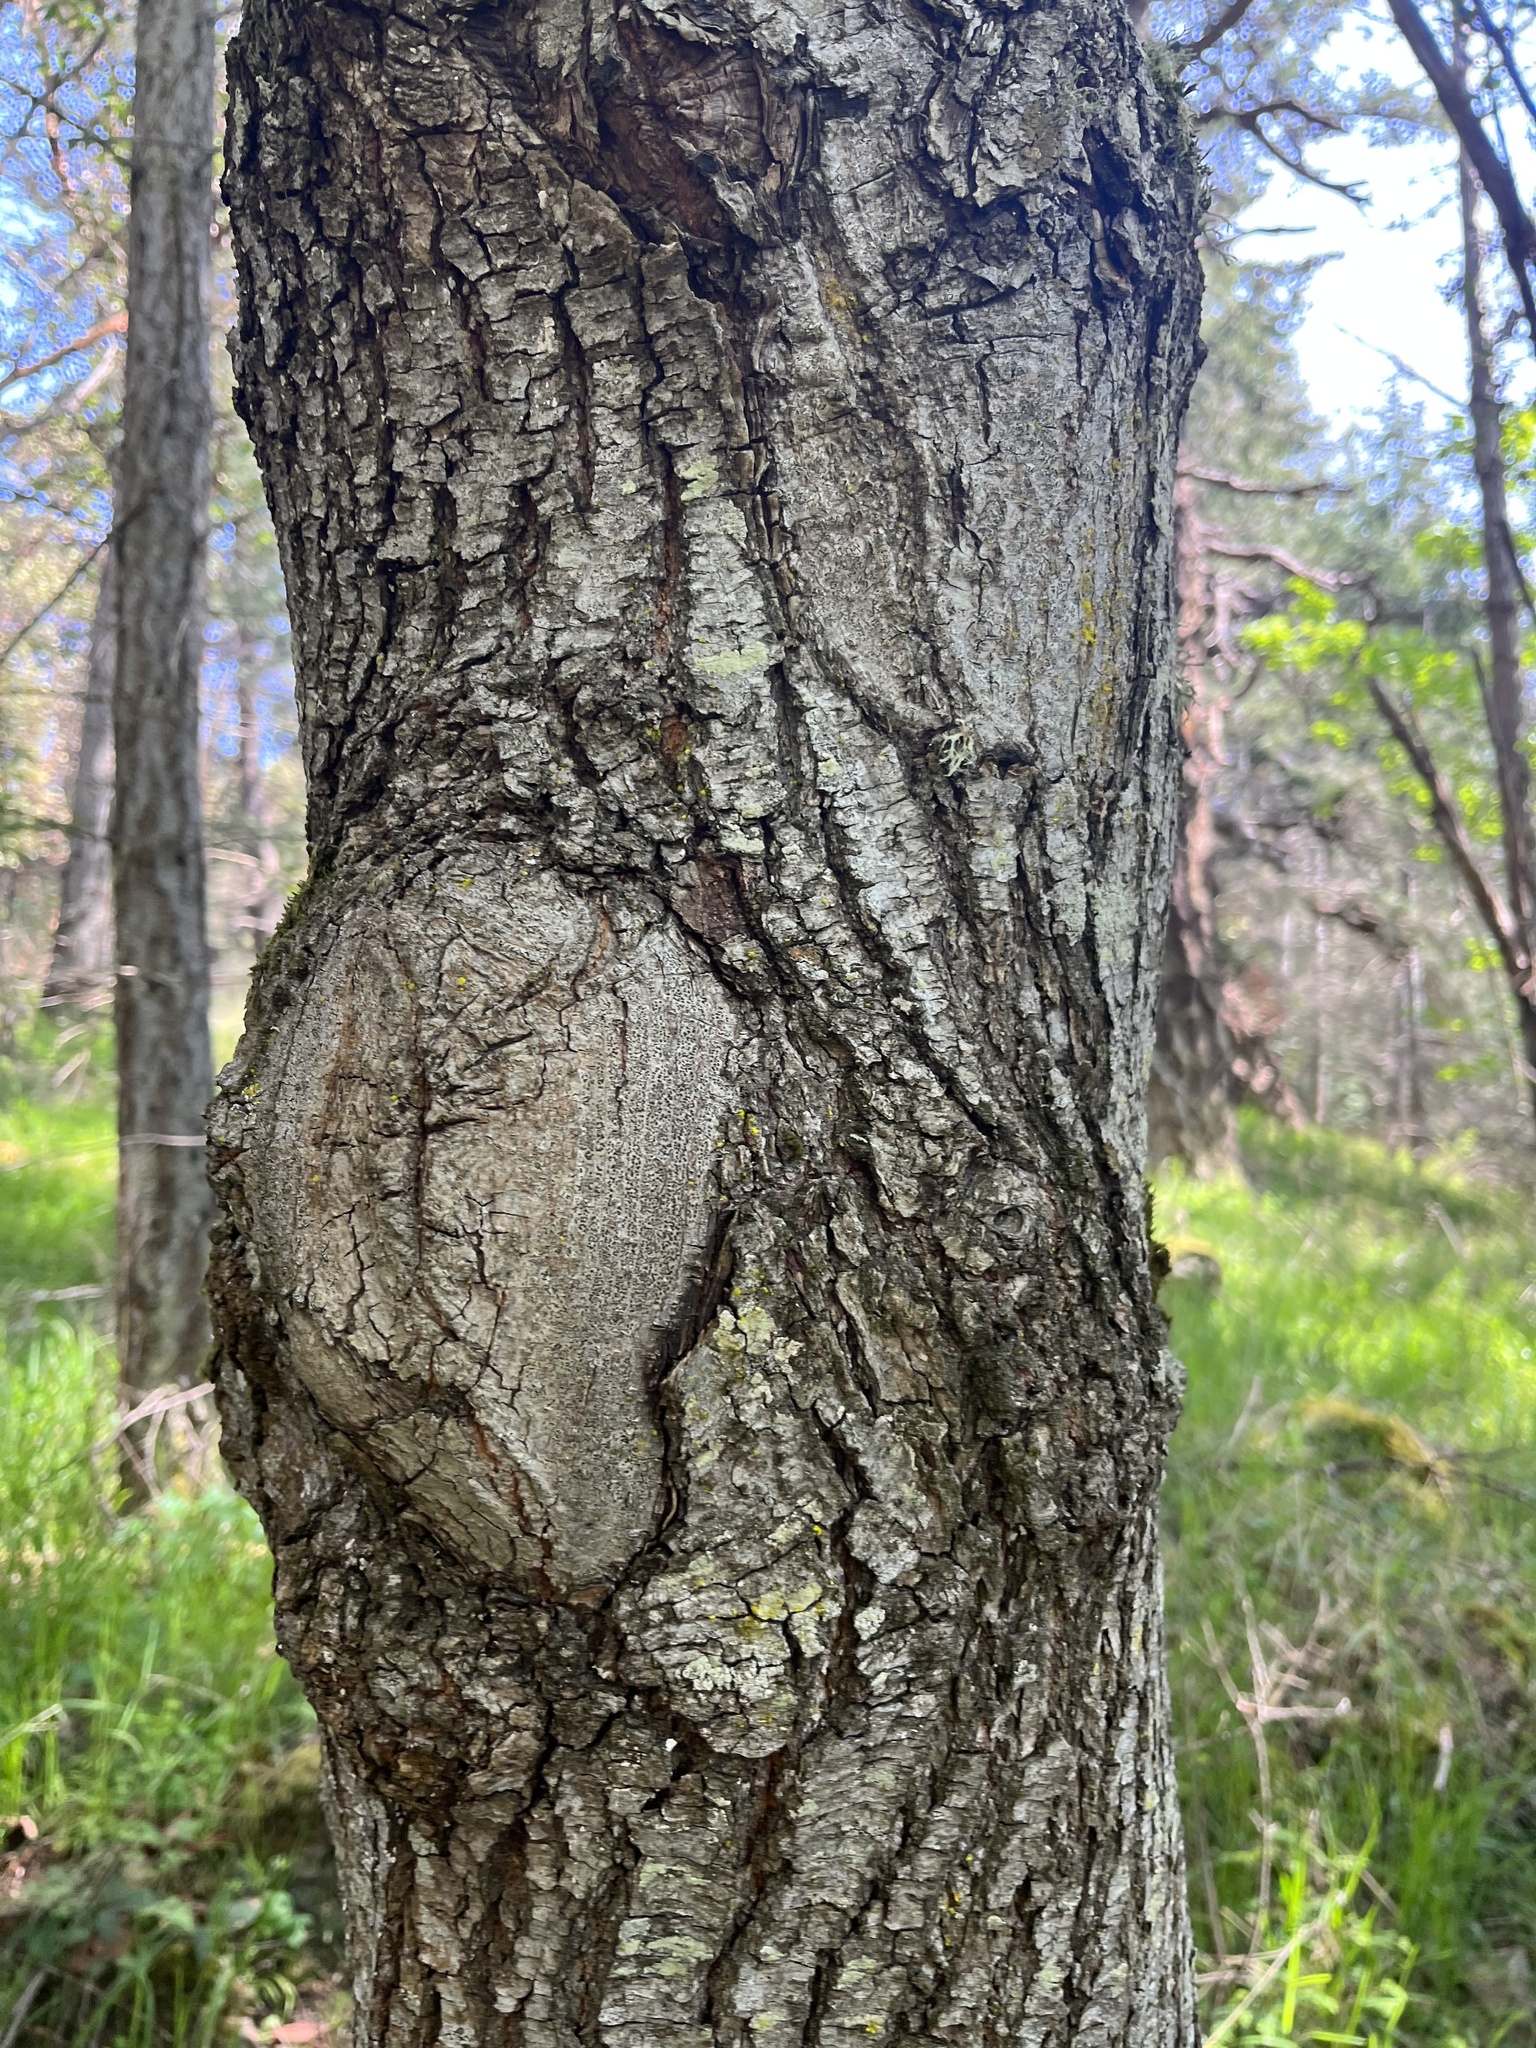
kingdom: Plantae
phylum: Tracheophyta
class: Magnoliopsida
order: Sapindales
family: Sapindaceae
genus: Acer
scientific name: Acer macrophyllum
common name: Oregon maple
